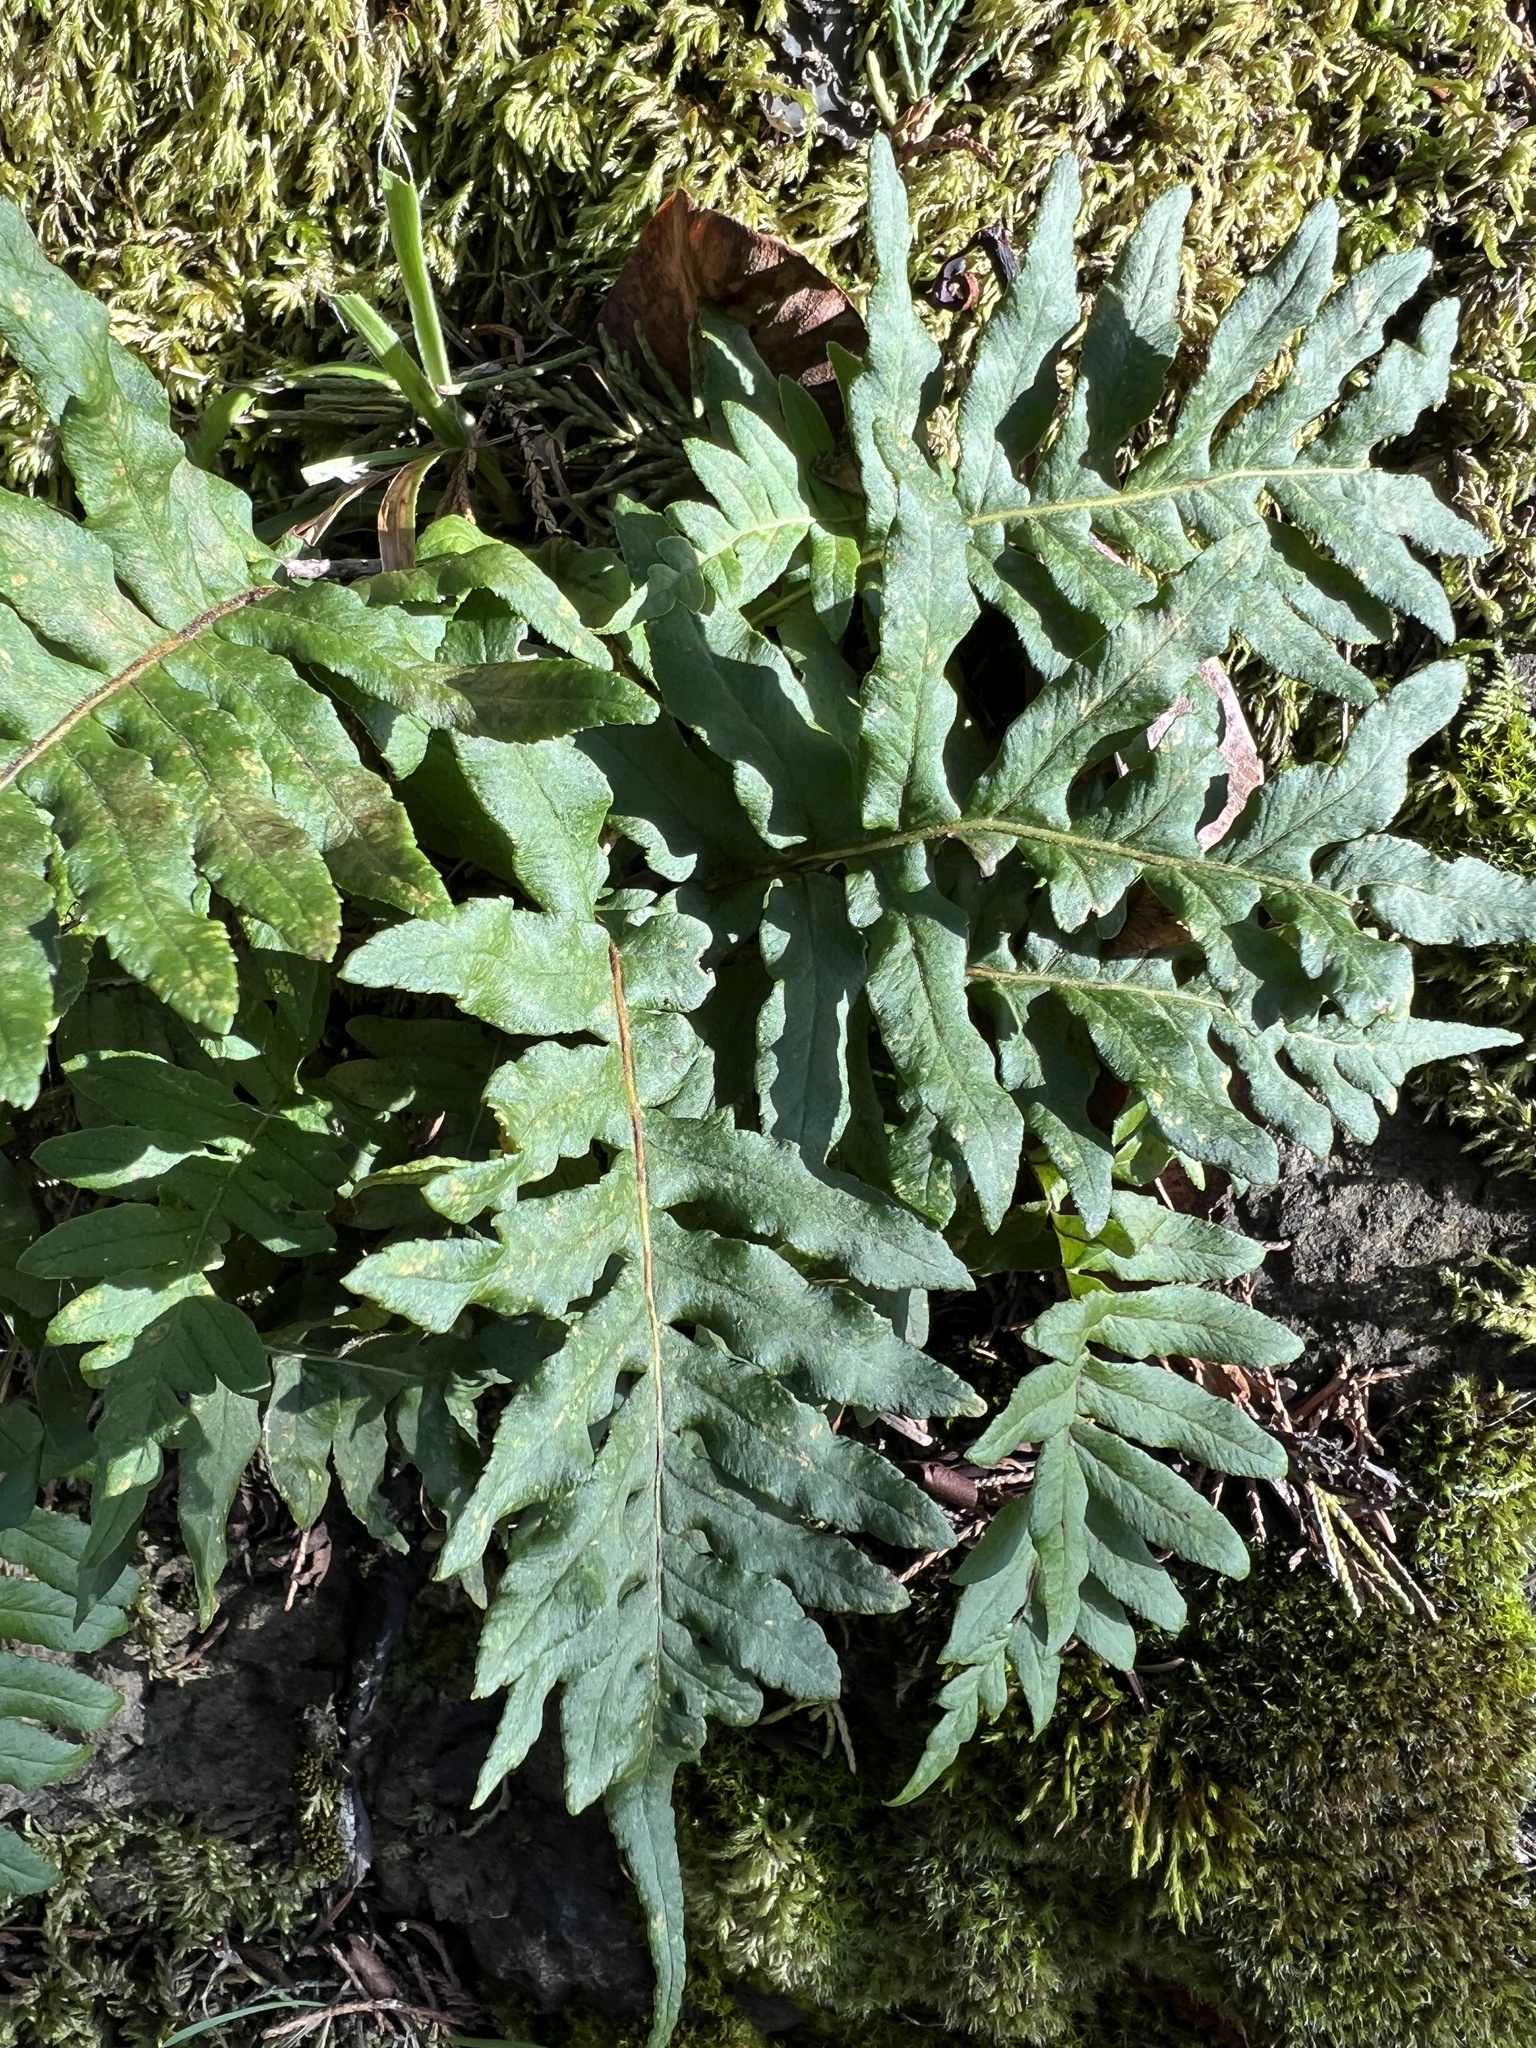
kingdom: Plantae
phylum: Tracheophyta
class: Polypodiopsida
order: Polypodiales
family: Polypodiaceae
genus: Polypodium
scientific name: Polypodium glycyrrhiza
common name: Licorice fern
